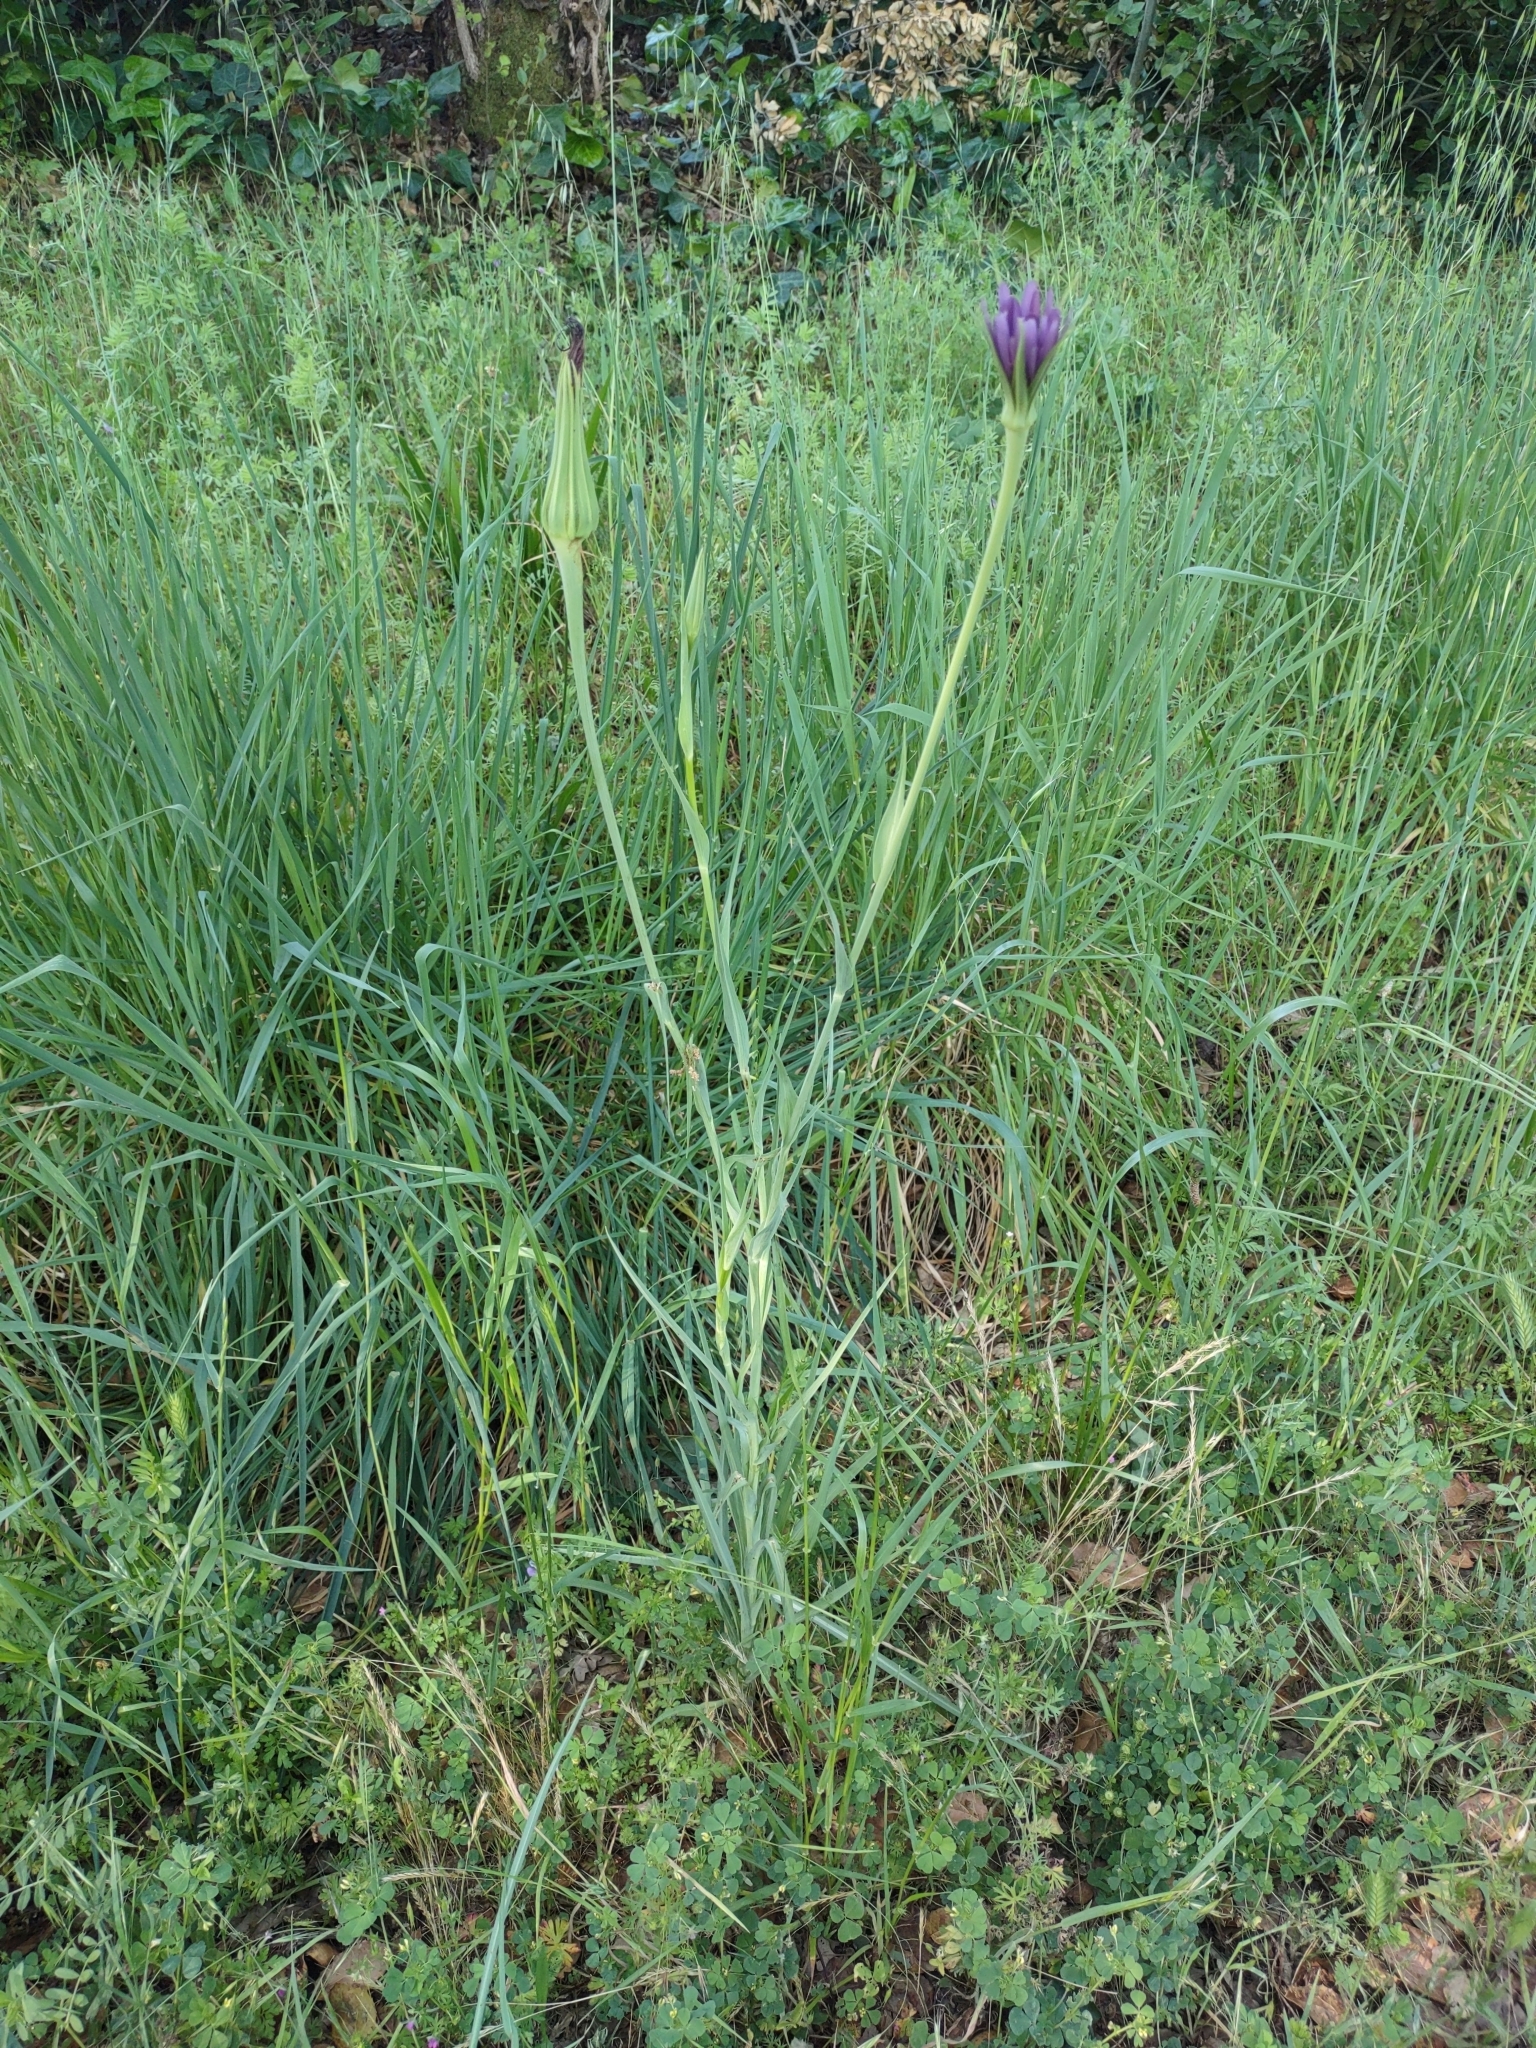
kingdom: Plantae
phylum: Tracheophyta
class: Magnoliopsida
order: Asterales
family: Asteraceae
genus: Tragopogon
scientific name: Tragopogon porrifolius
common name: Salsify
